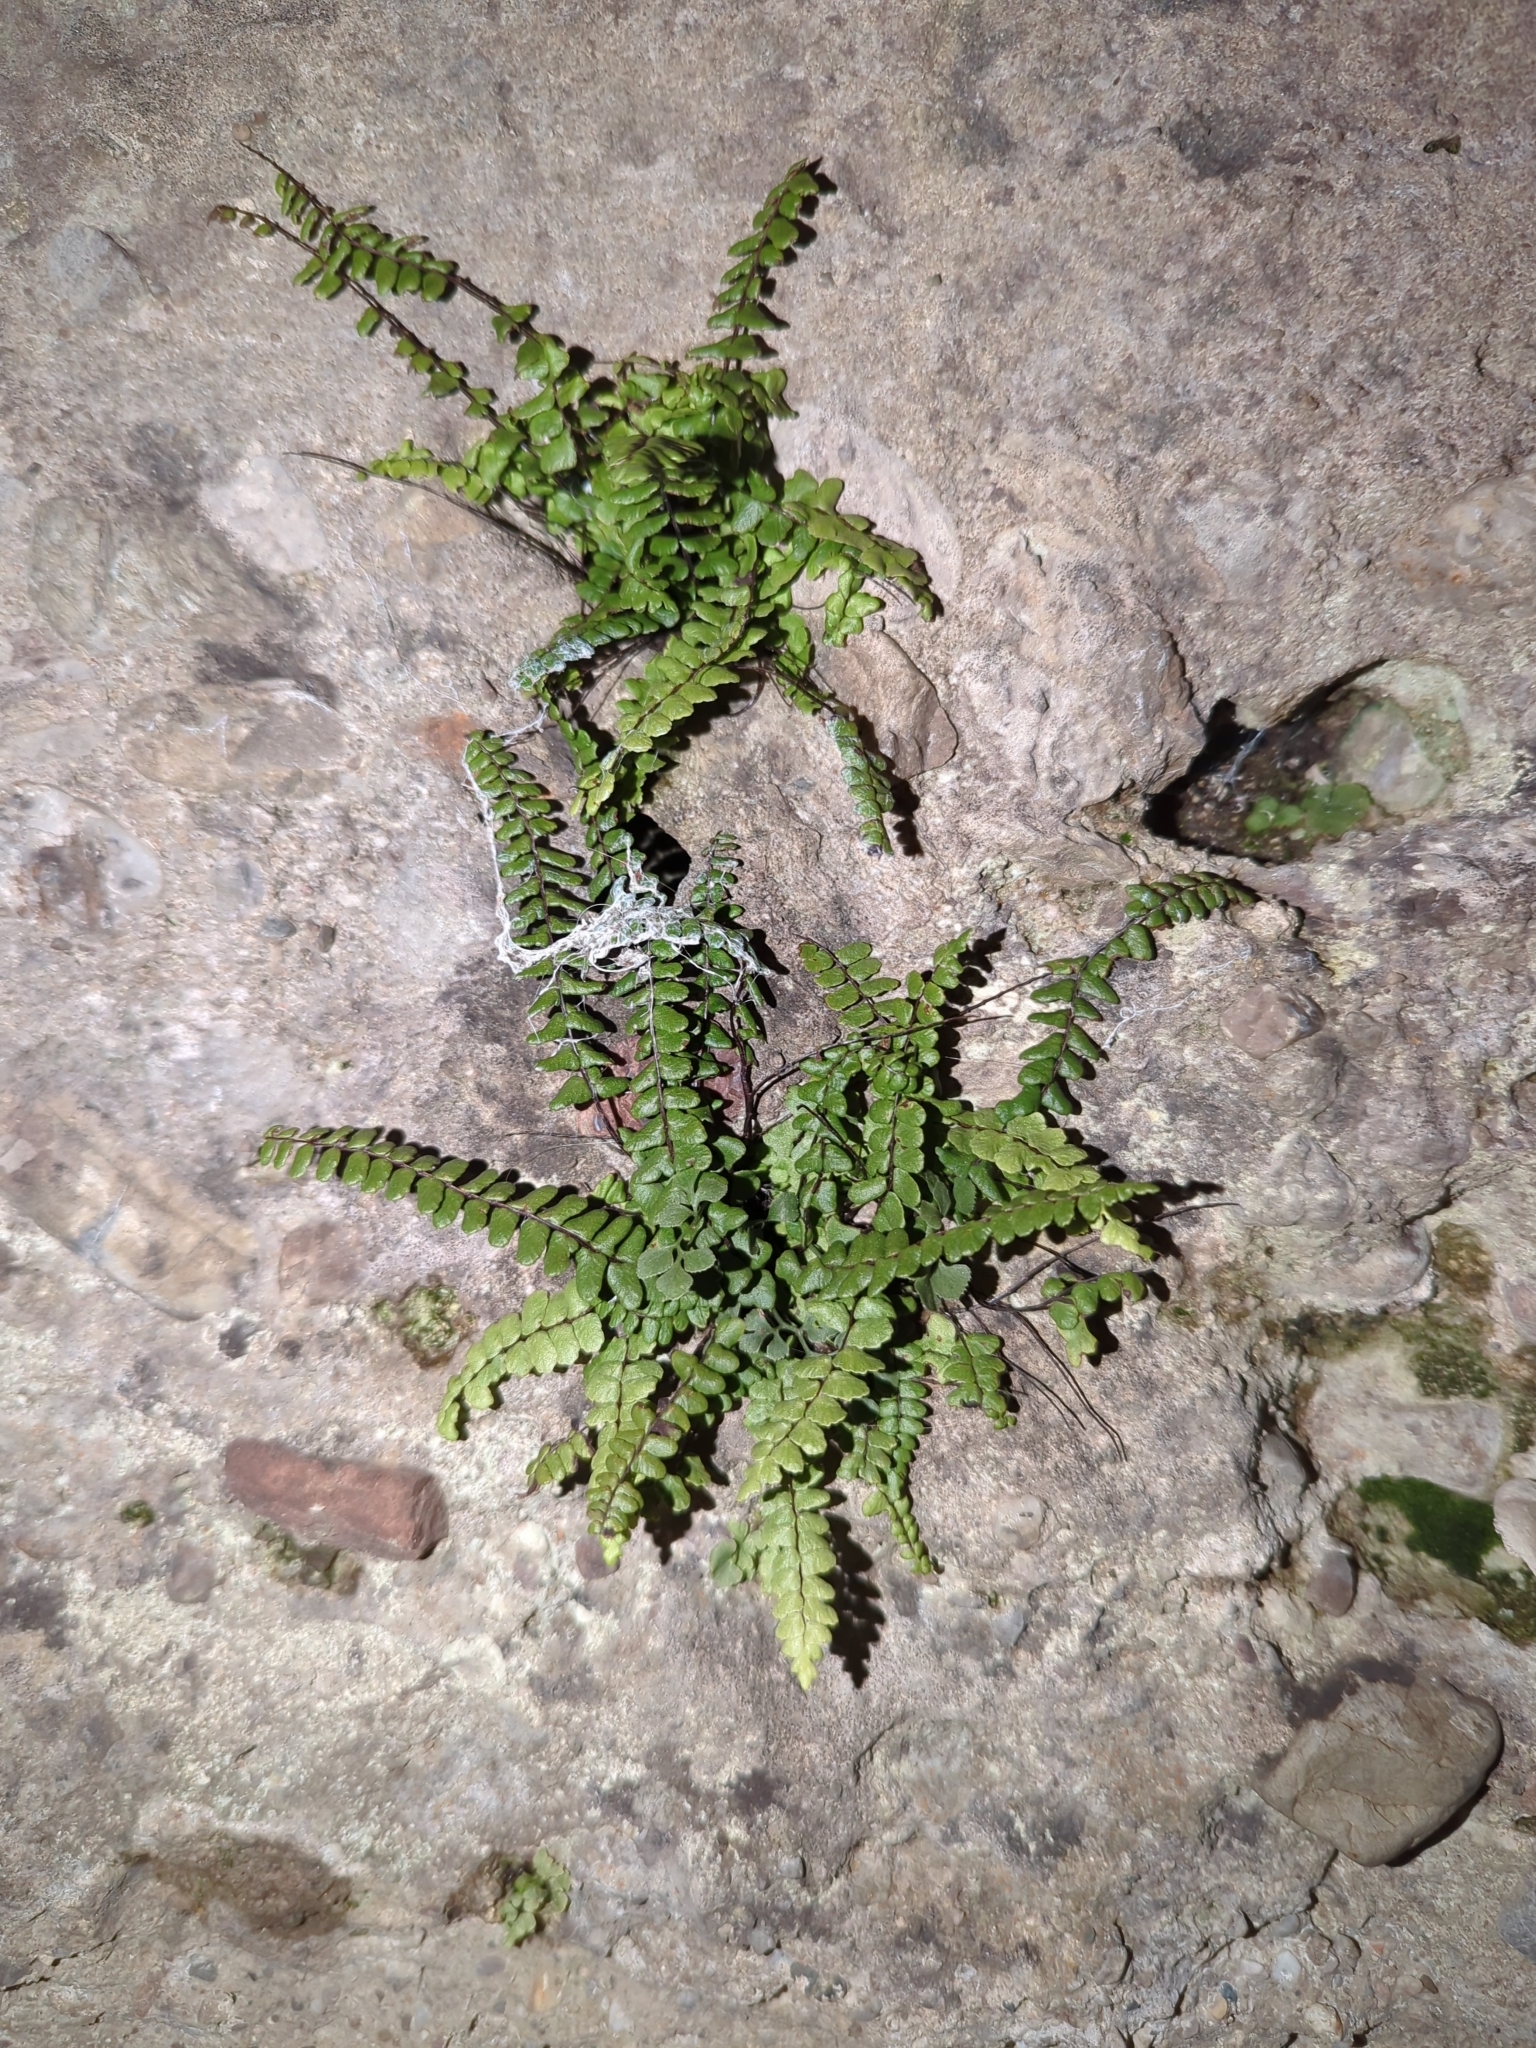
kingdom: Plantae
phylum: Tracheophyta
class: Polypodiopsida
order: Polypodiales
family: Aspleniaceae
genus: Asplenium
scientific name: Asplenium trichomanes
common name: Maidenhair spleenwort
